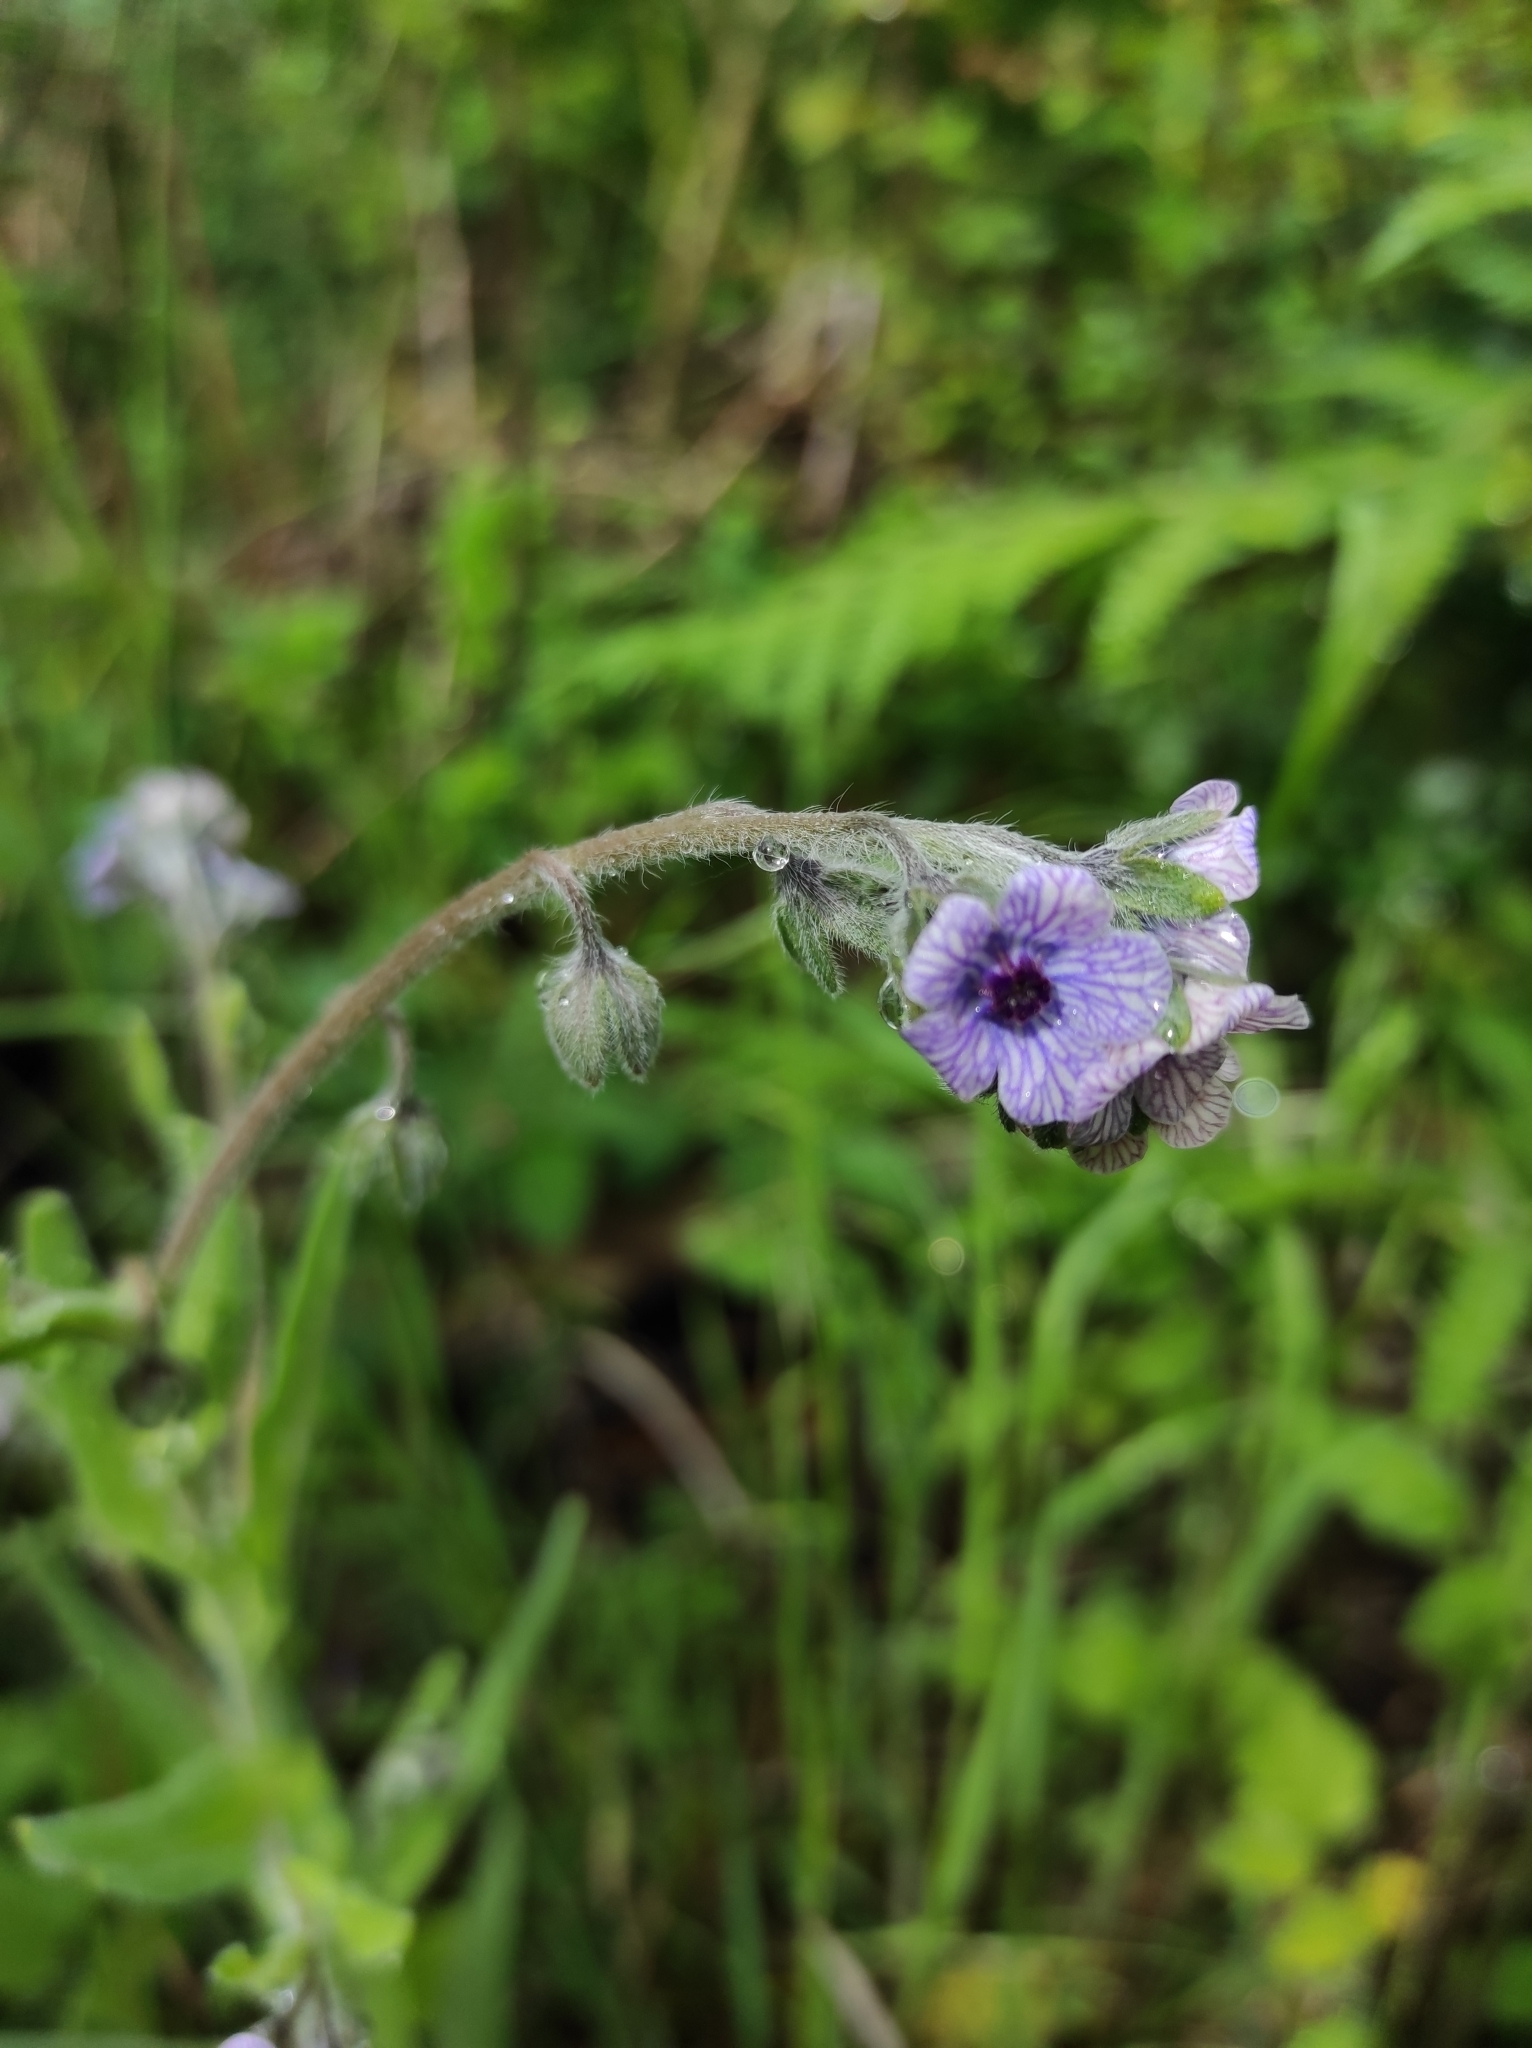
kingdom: Plantae
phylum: Tracheophyta
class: Magnoliopsida
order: Boraginales
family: Boraginaceae
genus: Cynoglossum
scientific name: Cynoglossum creticum
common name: Blue hound's tongue
